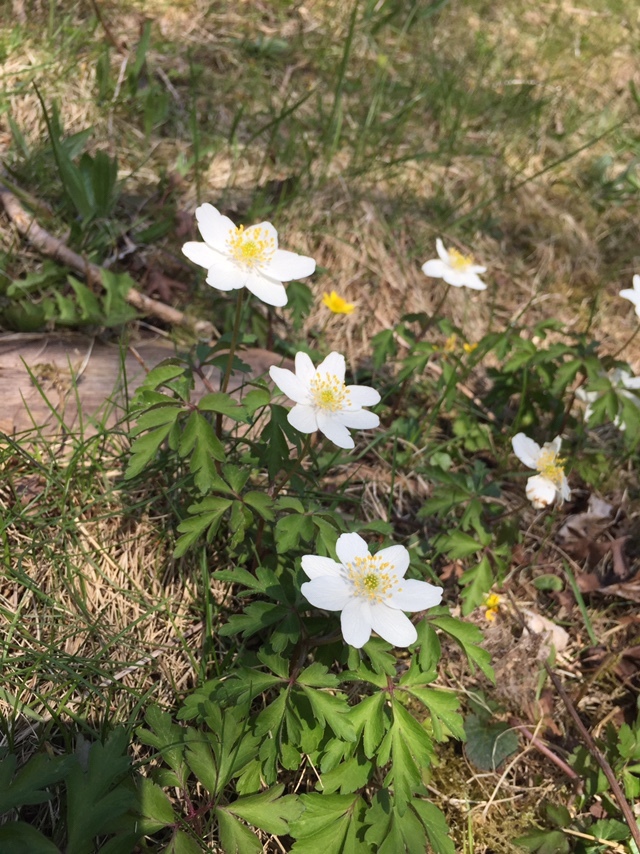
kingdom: Plantae
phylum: Tracheophyta
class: Magnoliopsida
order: Ranunculales
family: Ranunculaceae
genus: Anemone
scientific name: Anemone nemorosa
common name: Wood anemone
